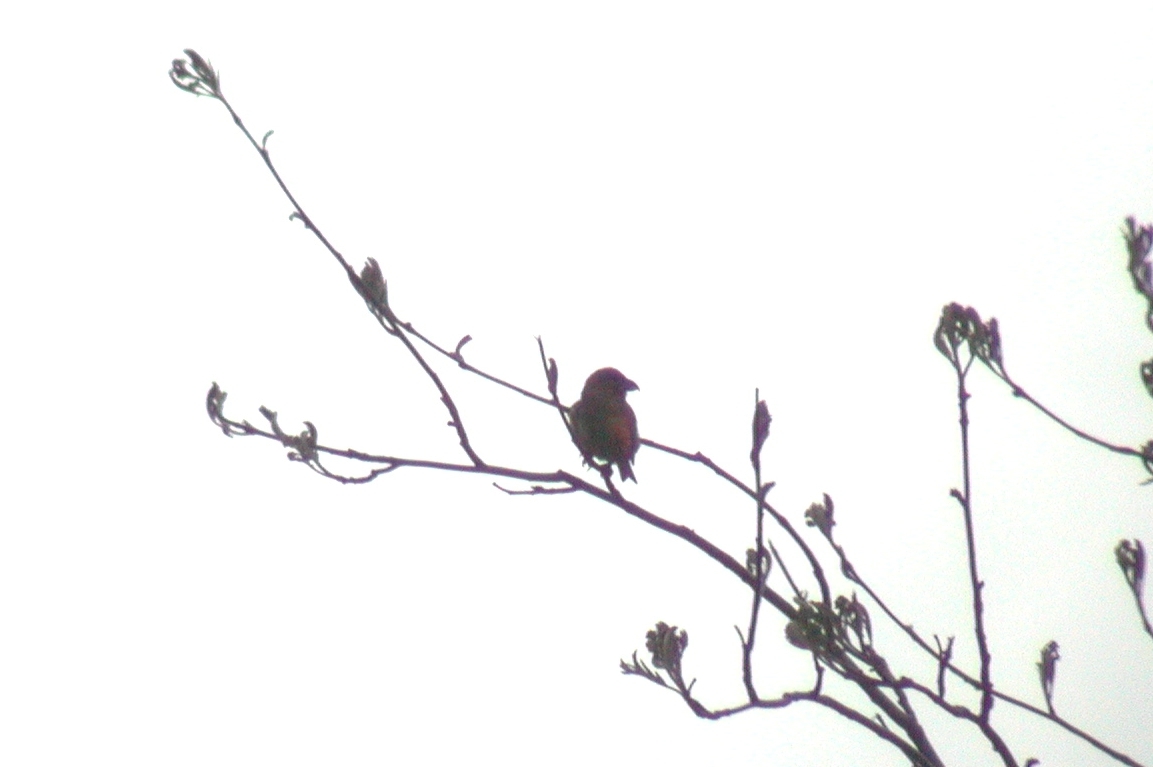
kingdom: Animalia
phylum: Chordata
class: Aves
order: Passeriformes
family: Fringillidae
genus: Loxia
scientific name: Loxia curvirostra
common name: Red crossbill
